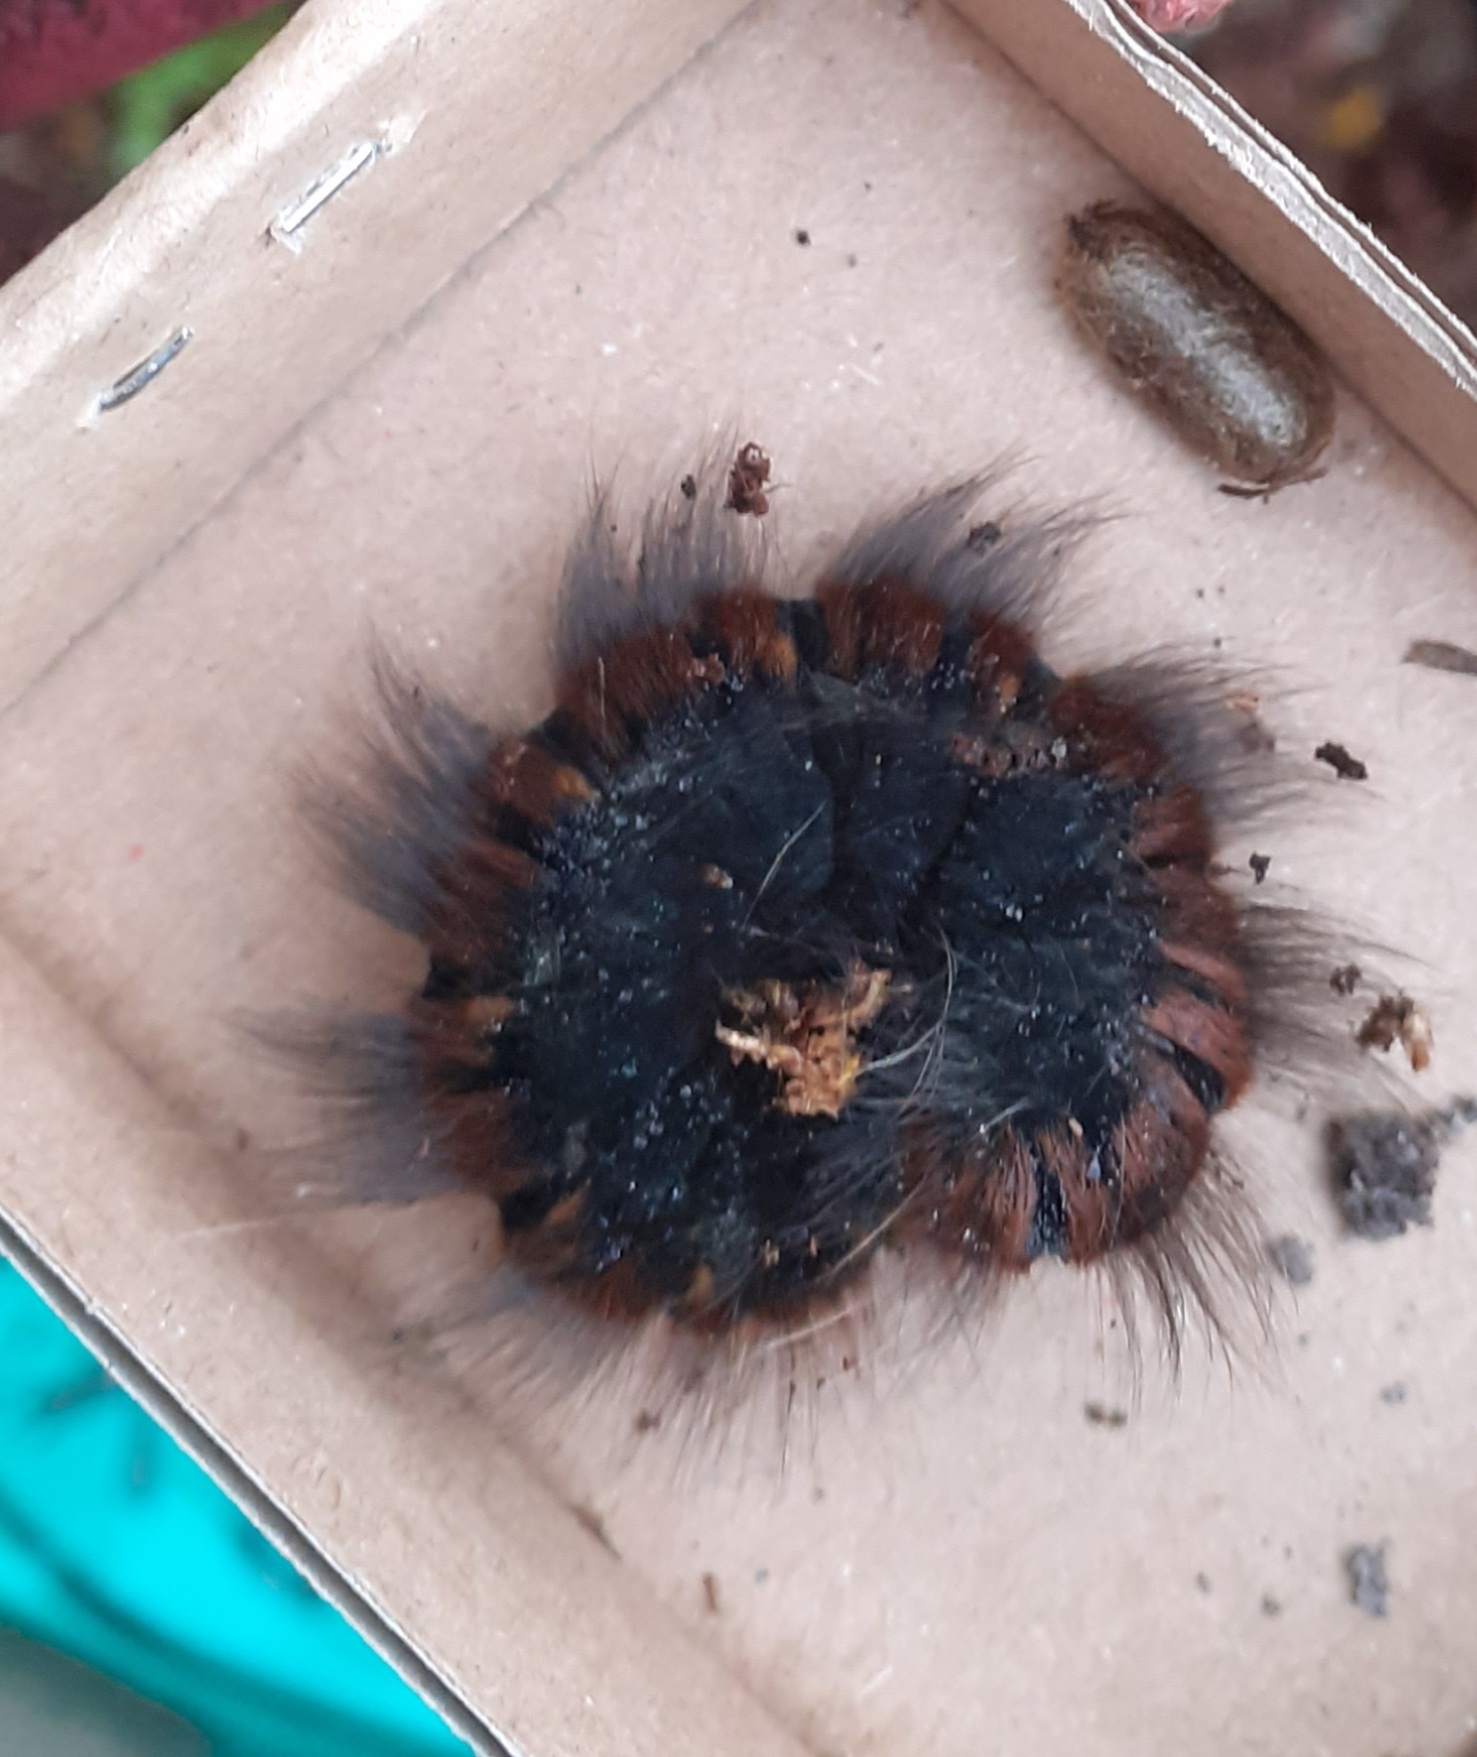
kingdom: Animalia
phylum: Arthropoda
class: Insecta
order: Lepidoptera
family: Lasiocampidae
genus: Macrothylacia
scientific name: Macrothylacia rubi
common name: Fox moth
